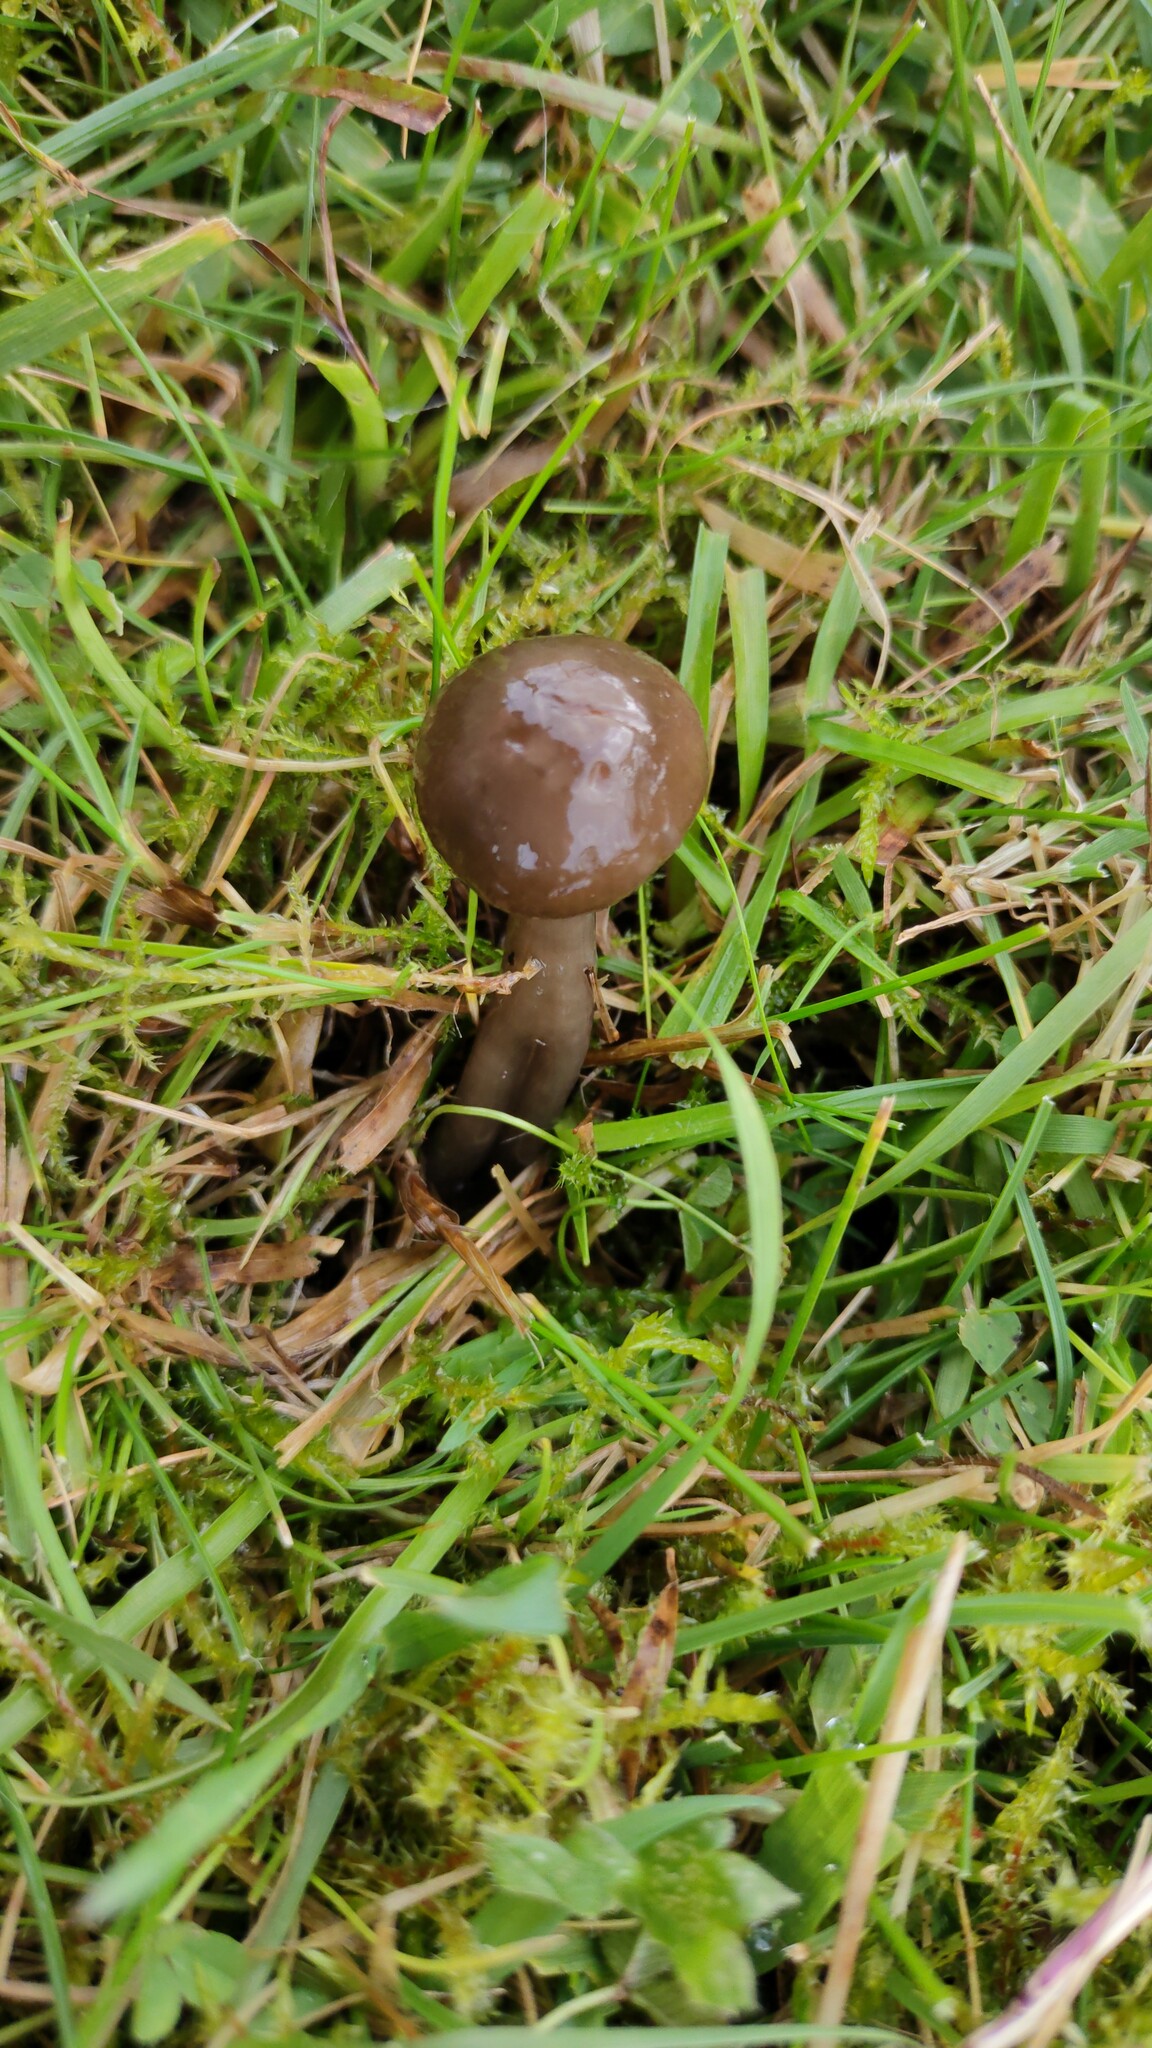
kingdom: Fungi
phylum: Basidiomycota
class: Agaricomycetes
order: Agaricales
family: Hygrophoraceae
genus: Gliophorus
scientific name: Gliophorus irrigatus
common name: Slimy waxcap
